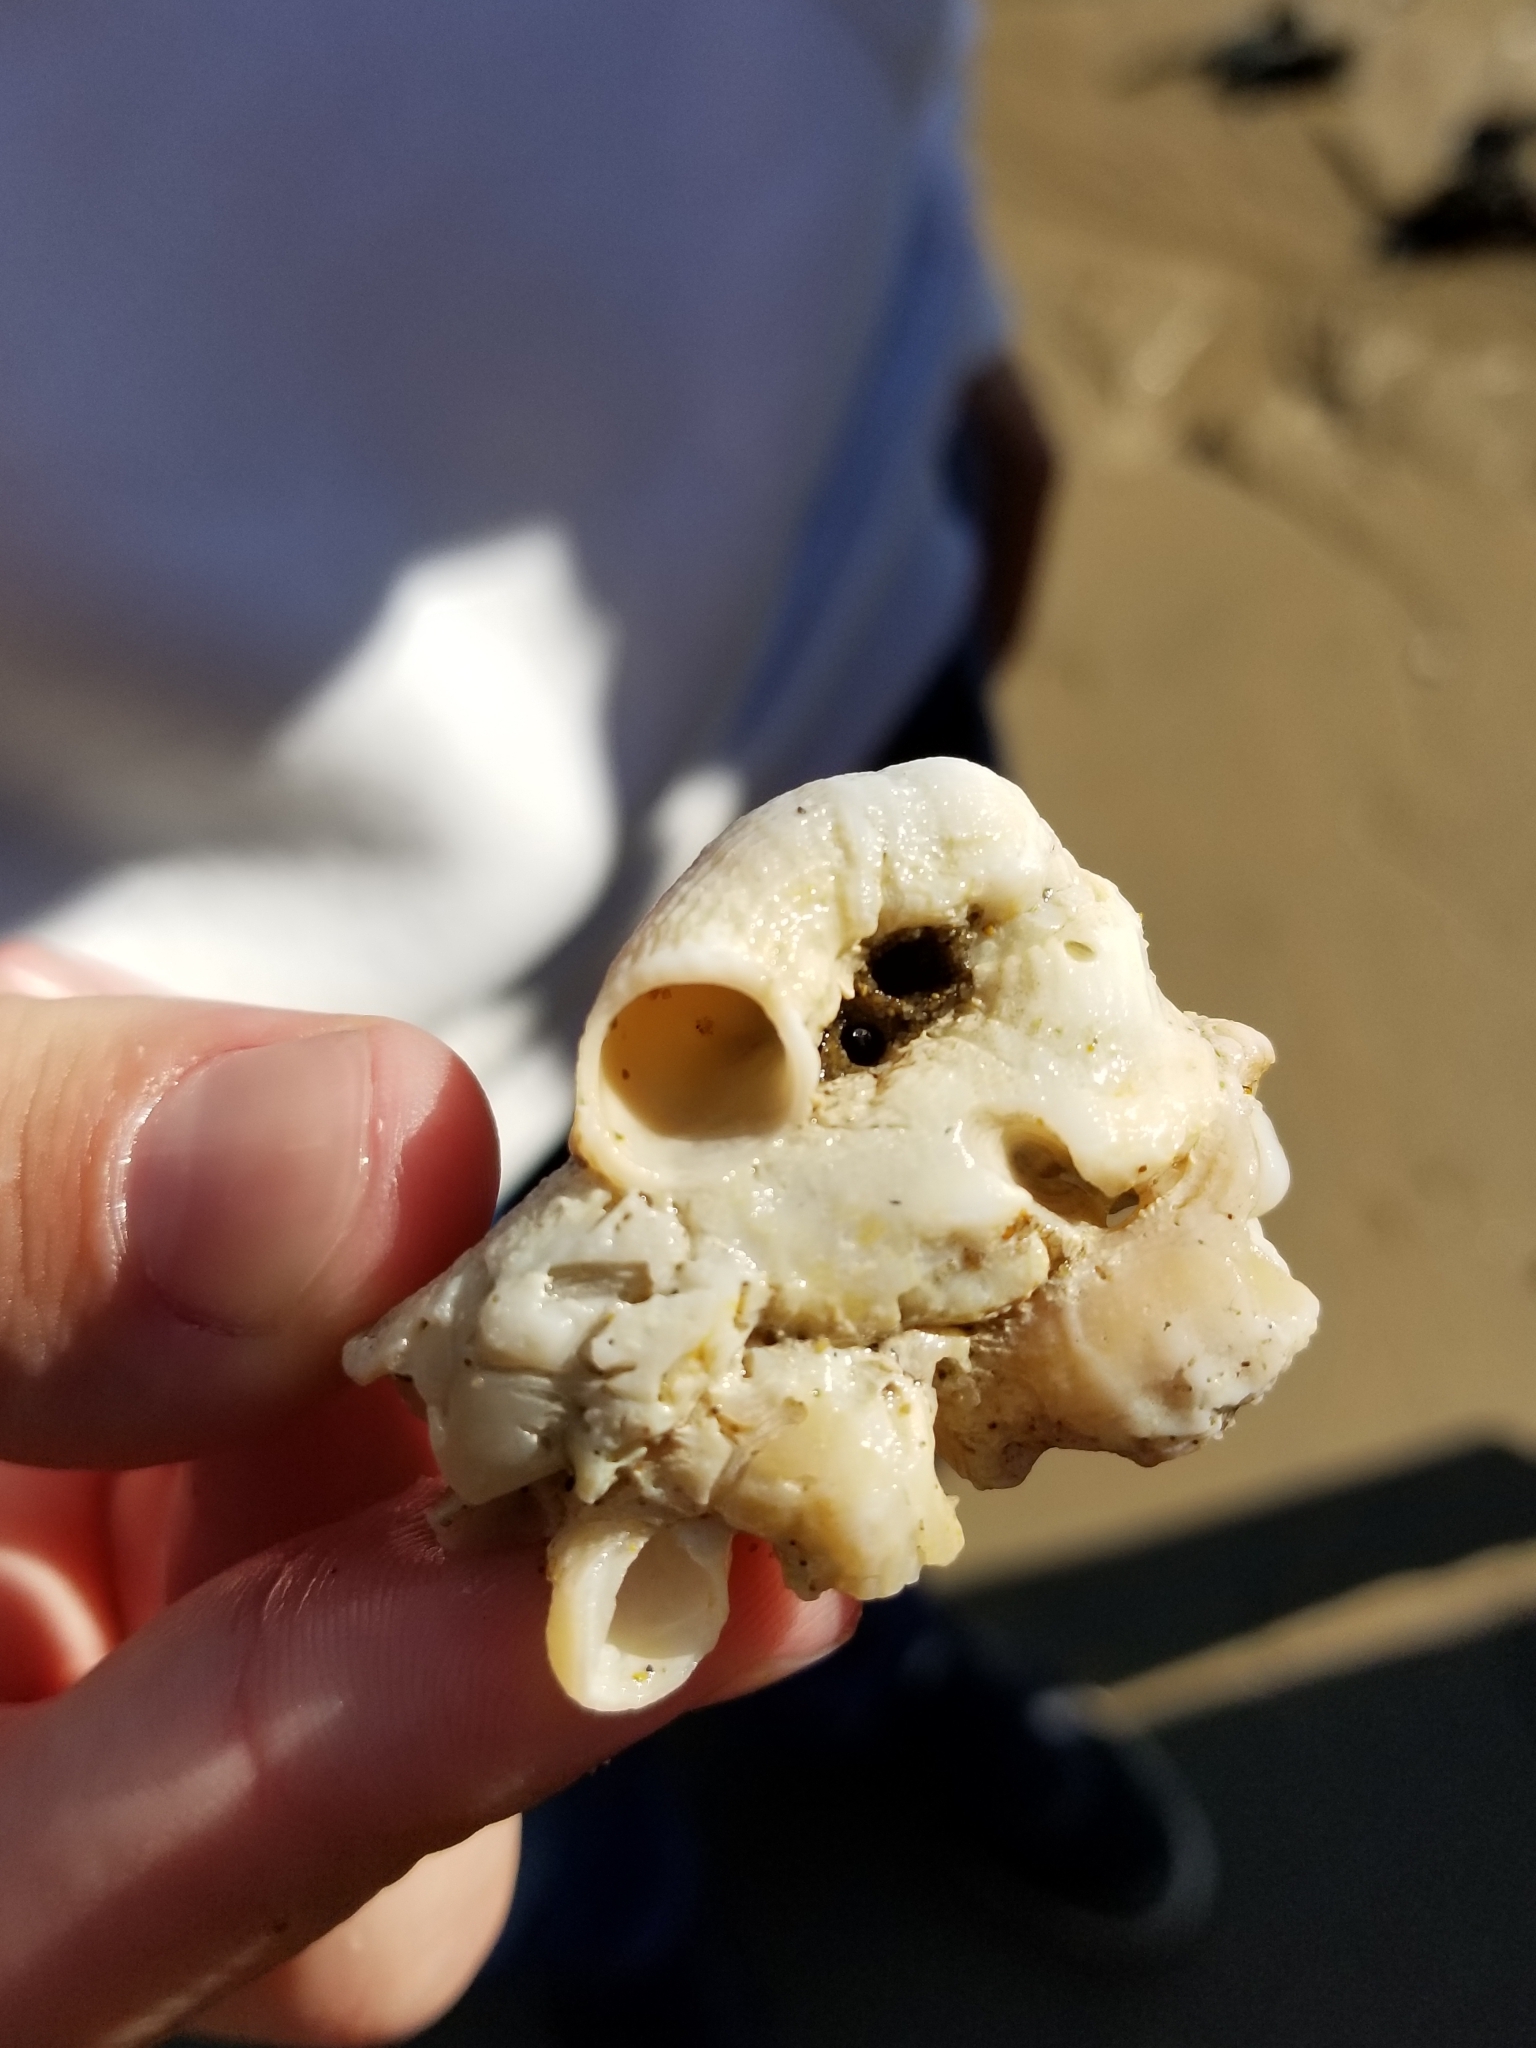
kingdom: Animalia
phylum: Mollusca
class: Gastropoda
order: Littorinimorpha
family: Vermetidae
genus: Thylacodes
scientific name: Thylacodes squamigerus
